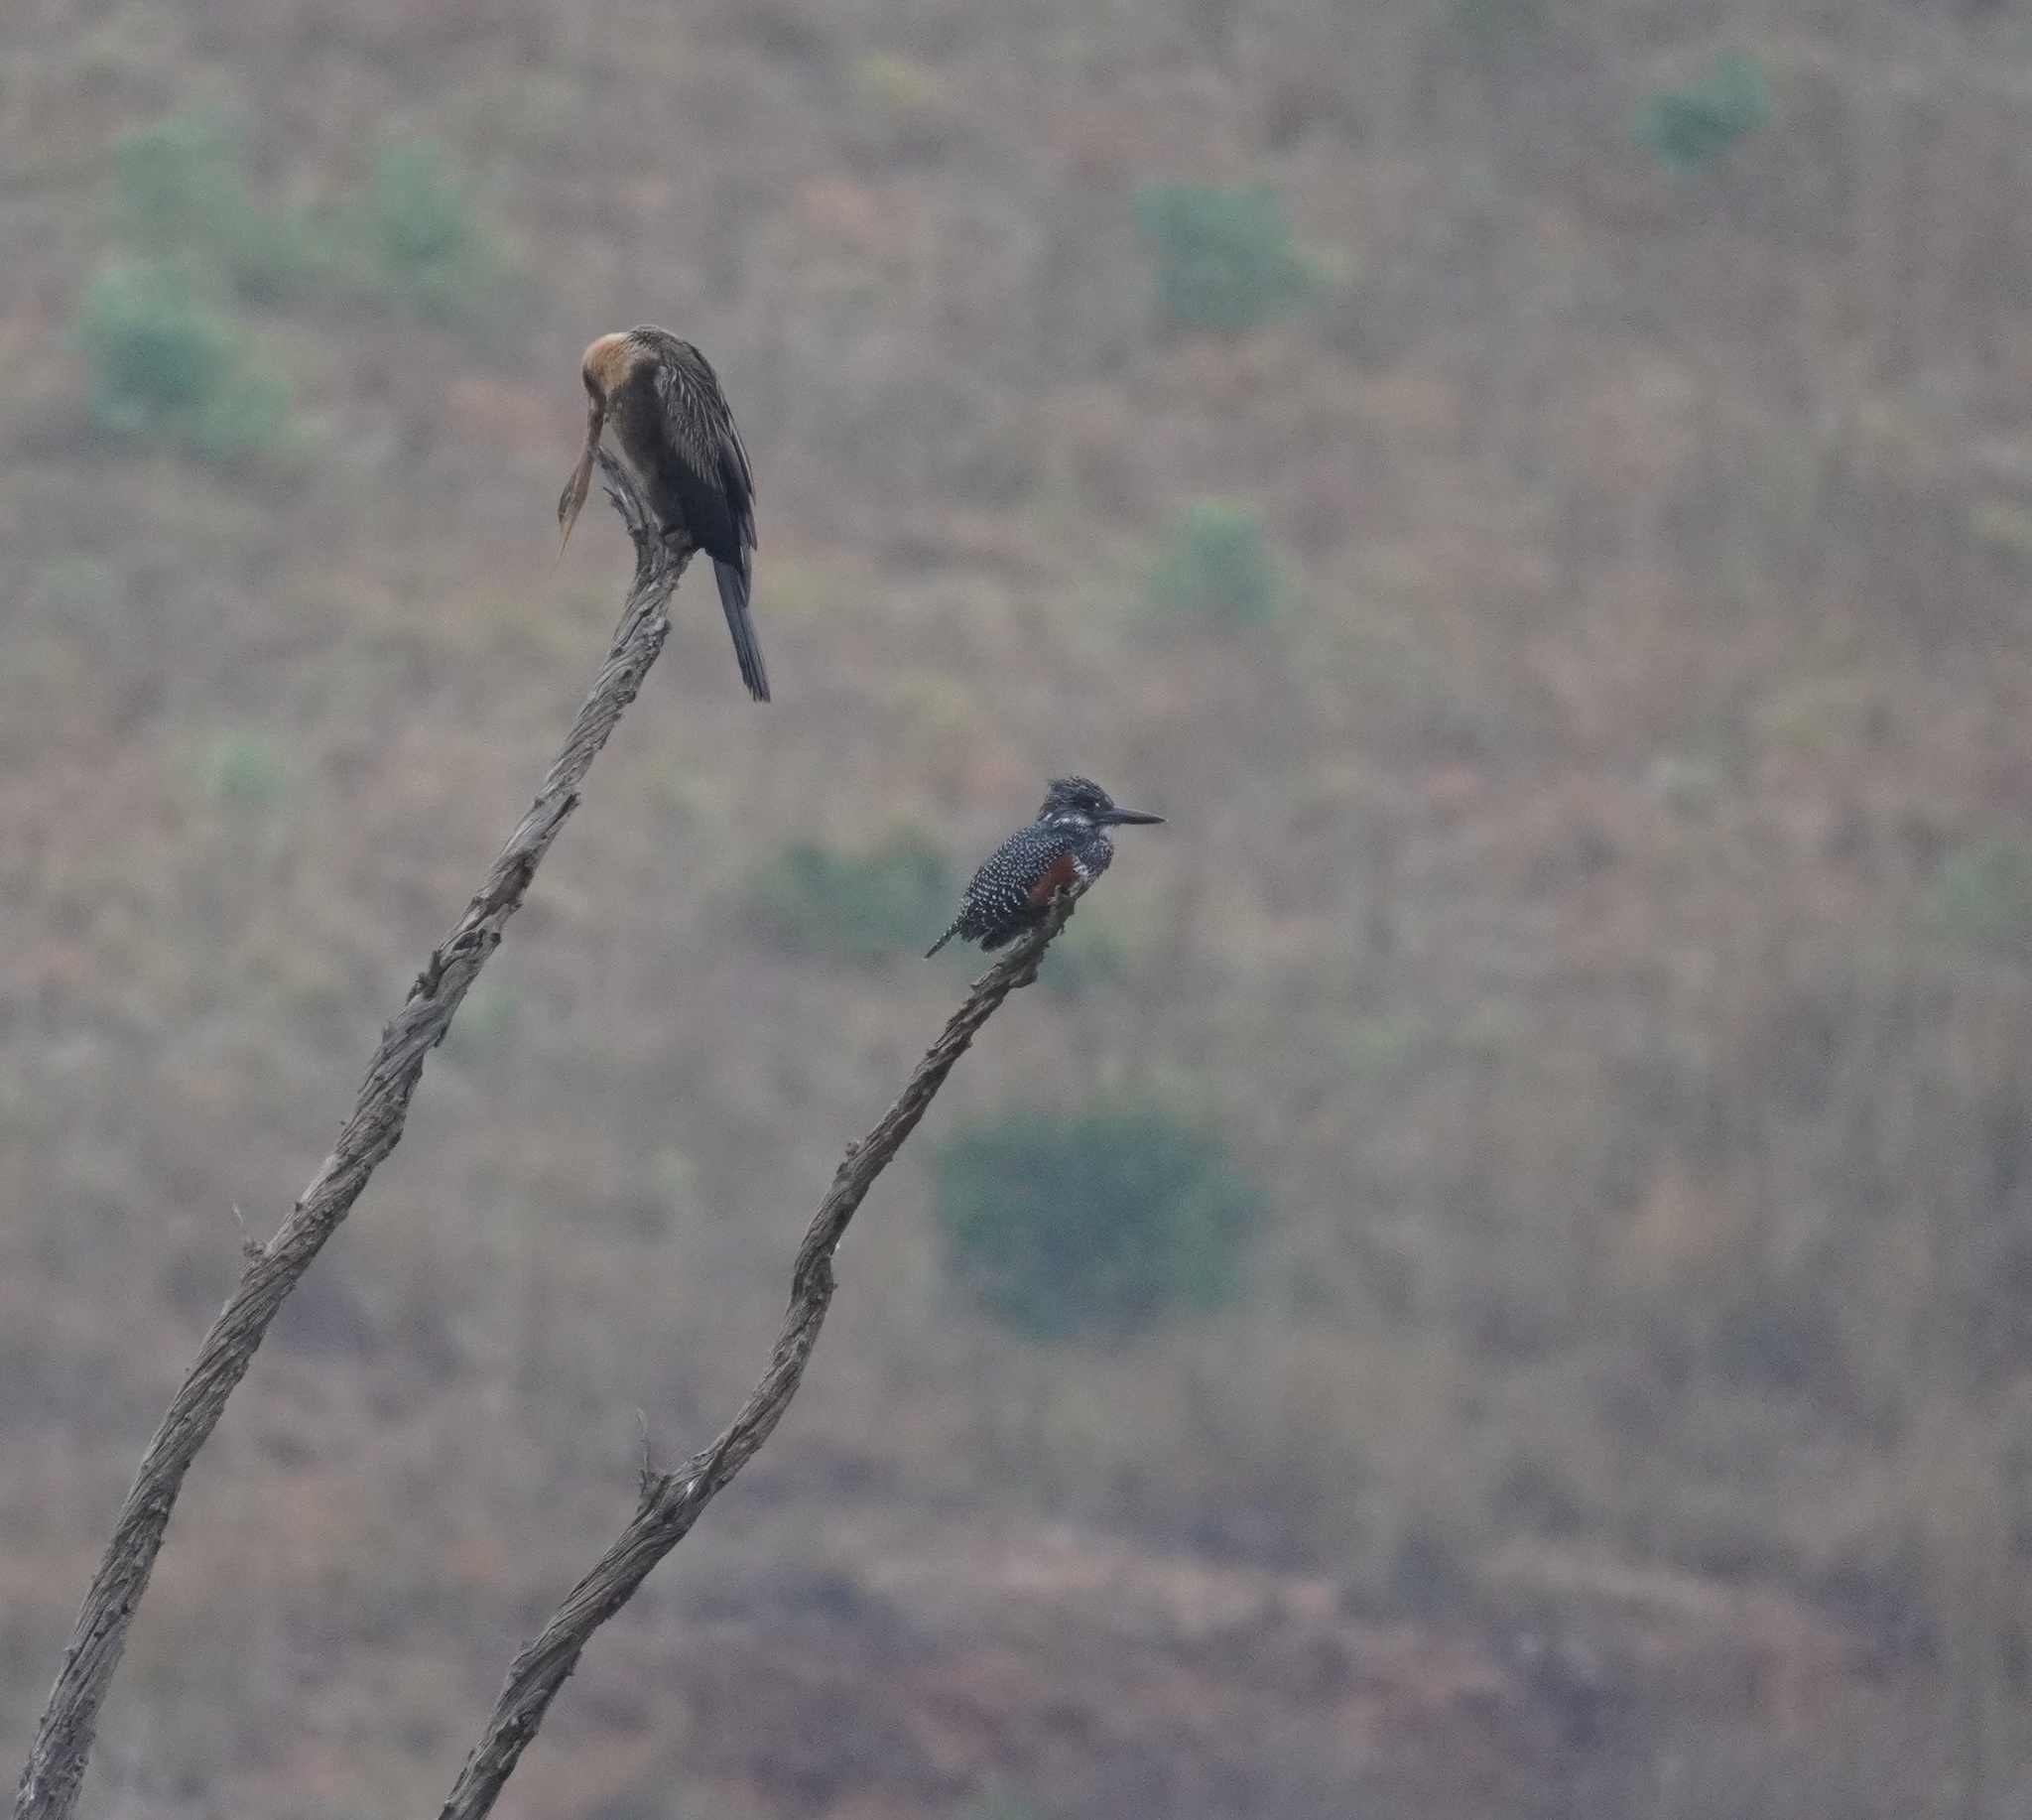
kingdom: Animalia
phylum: Chordata
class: Aves
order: Coraciiformes
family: Alcedinidae
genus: Megaceryle
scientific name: Megaceryle maxima
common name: Giant kingfisher
